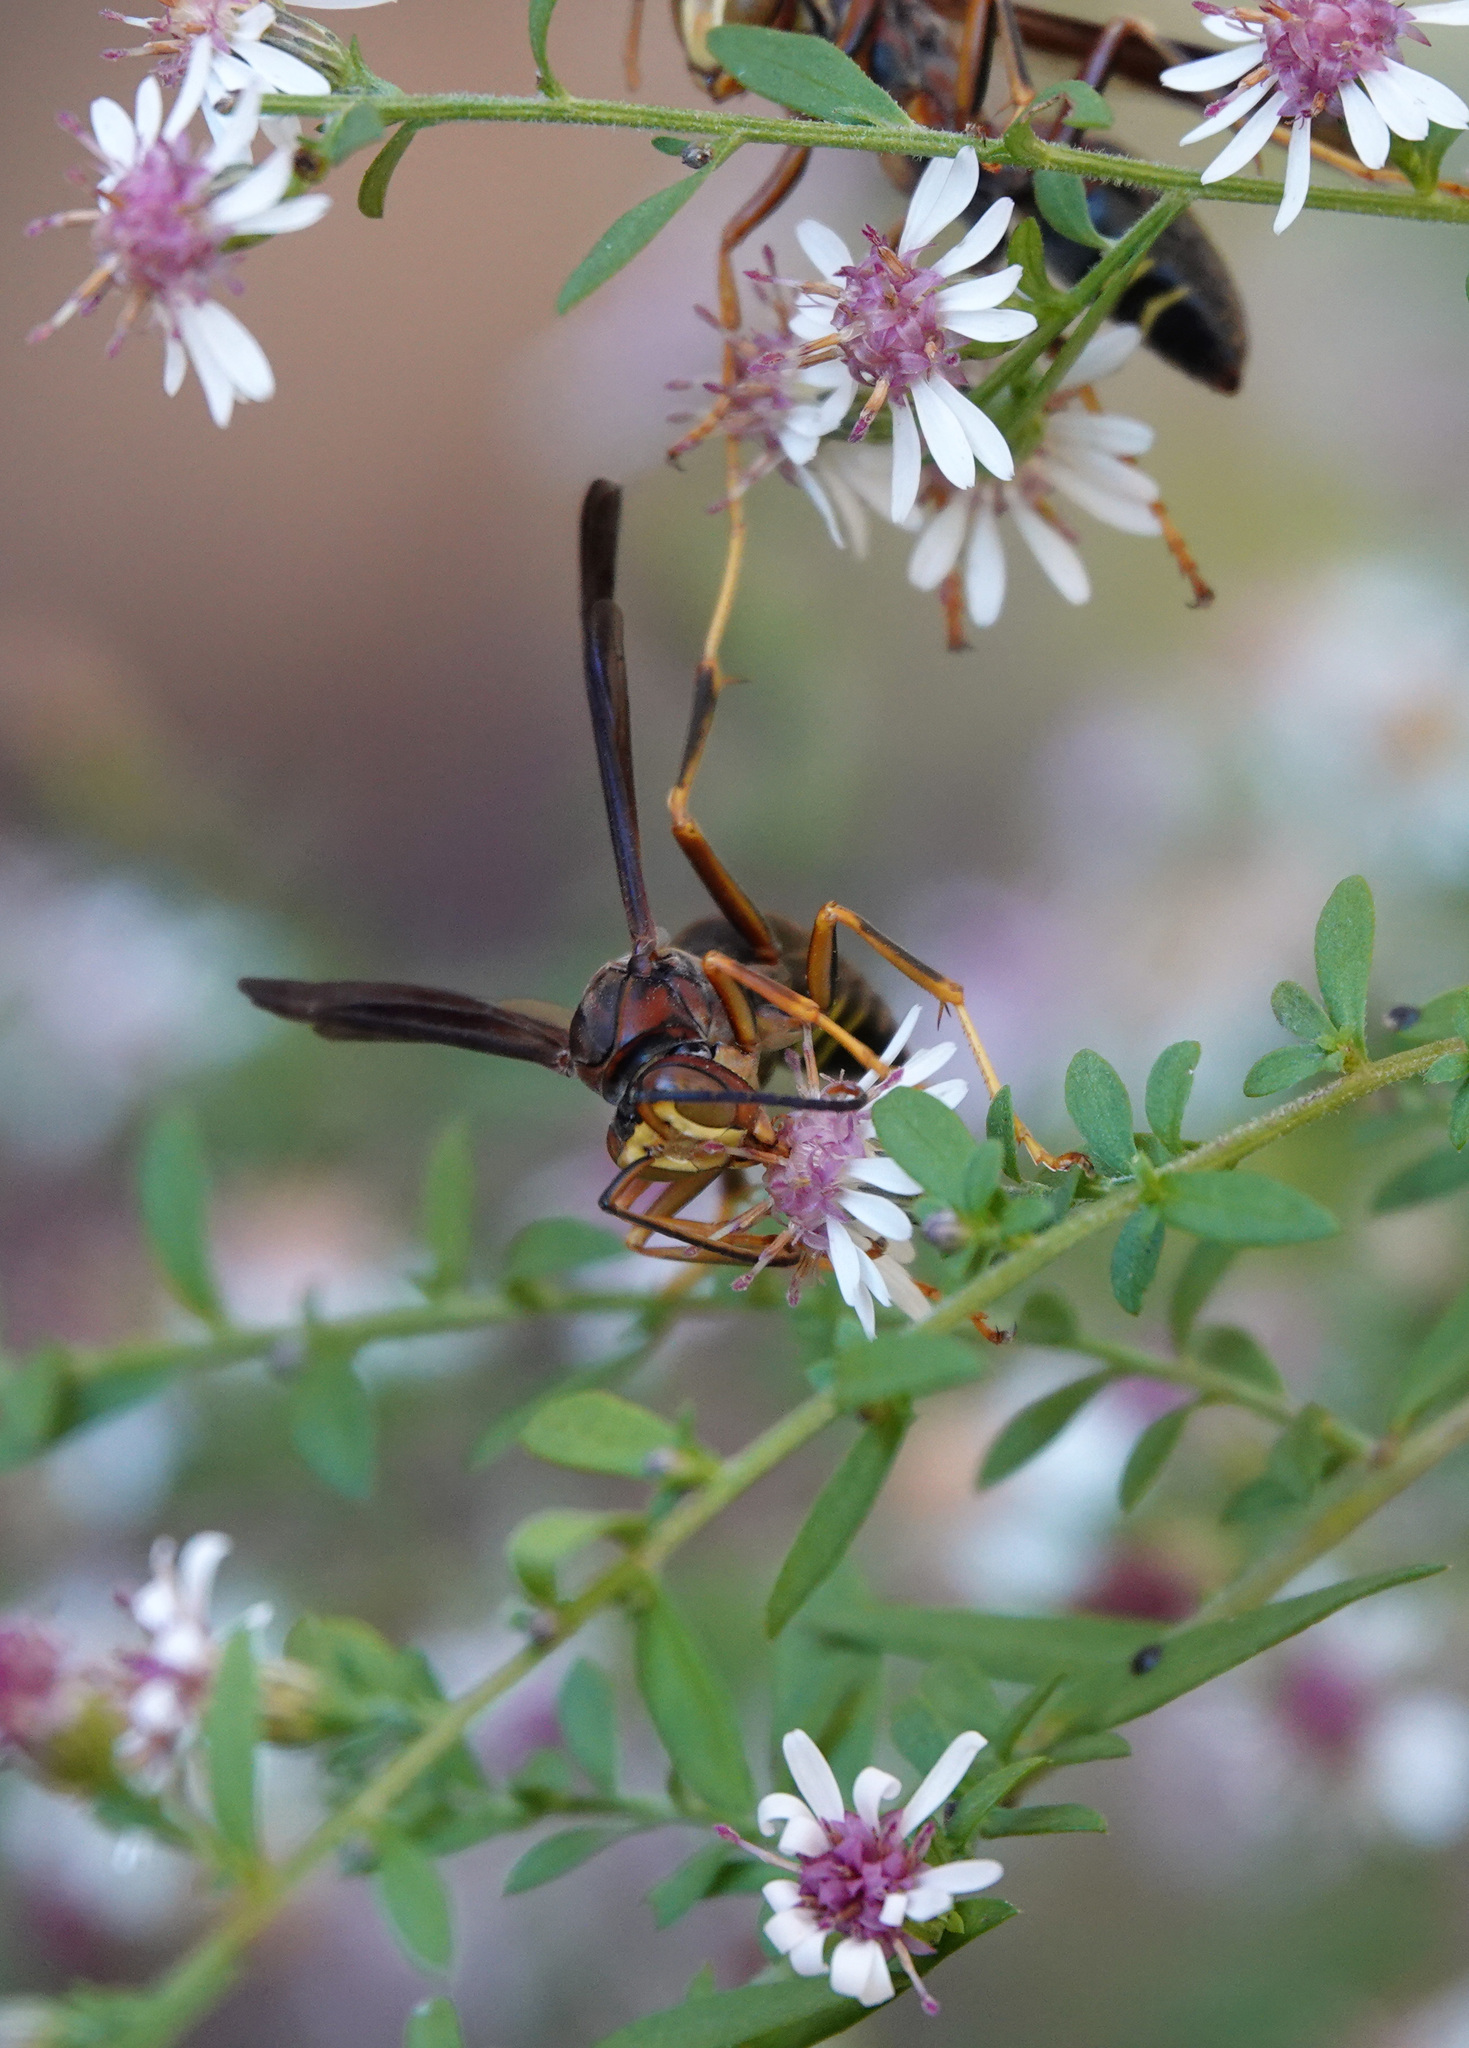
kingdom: Animalia
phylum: Arthropoda
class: Insecta
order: Hymenoptera
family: Eumenidae
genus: Polistes
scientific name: Polistes metricus
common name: Metric paper wasp
